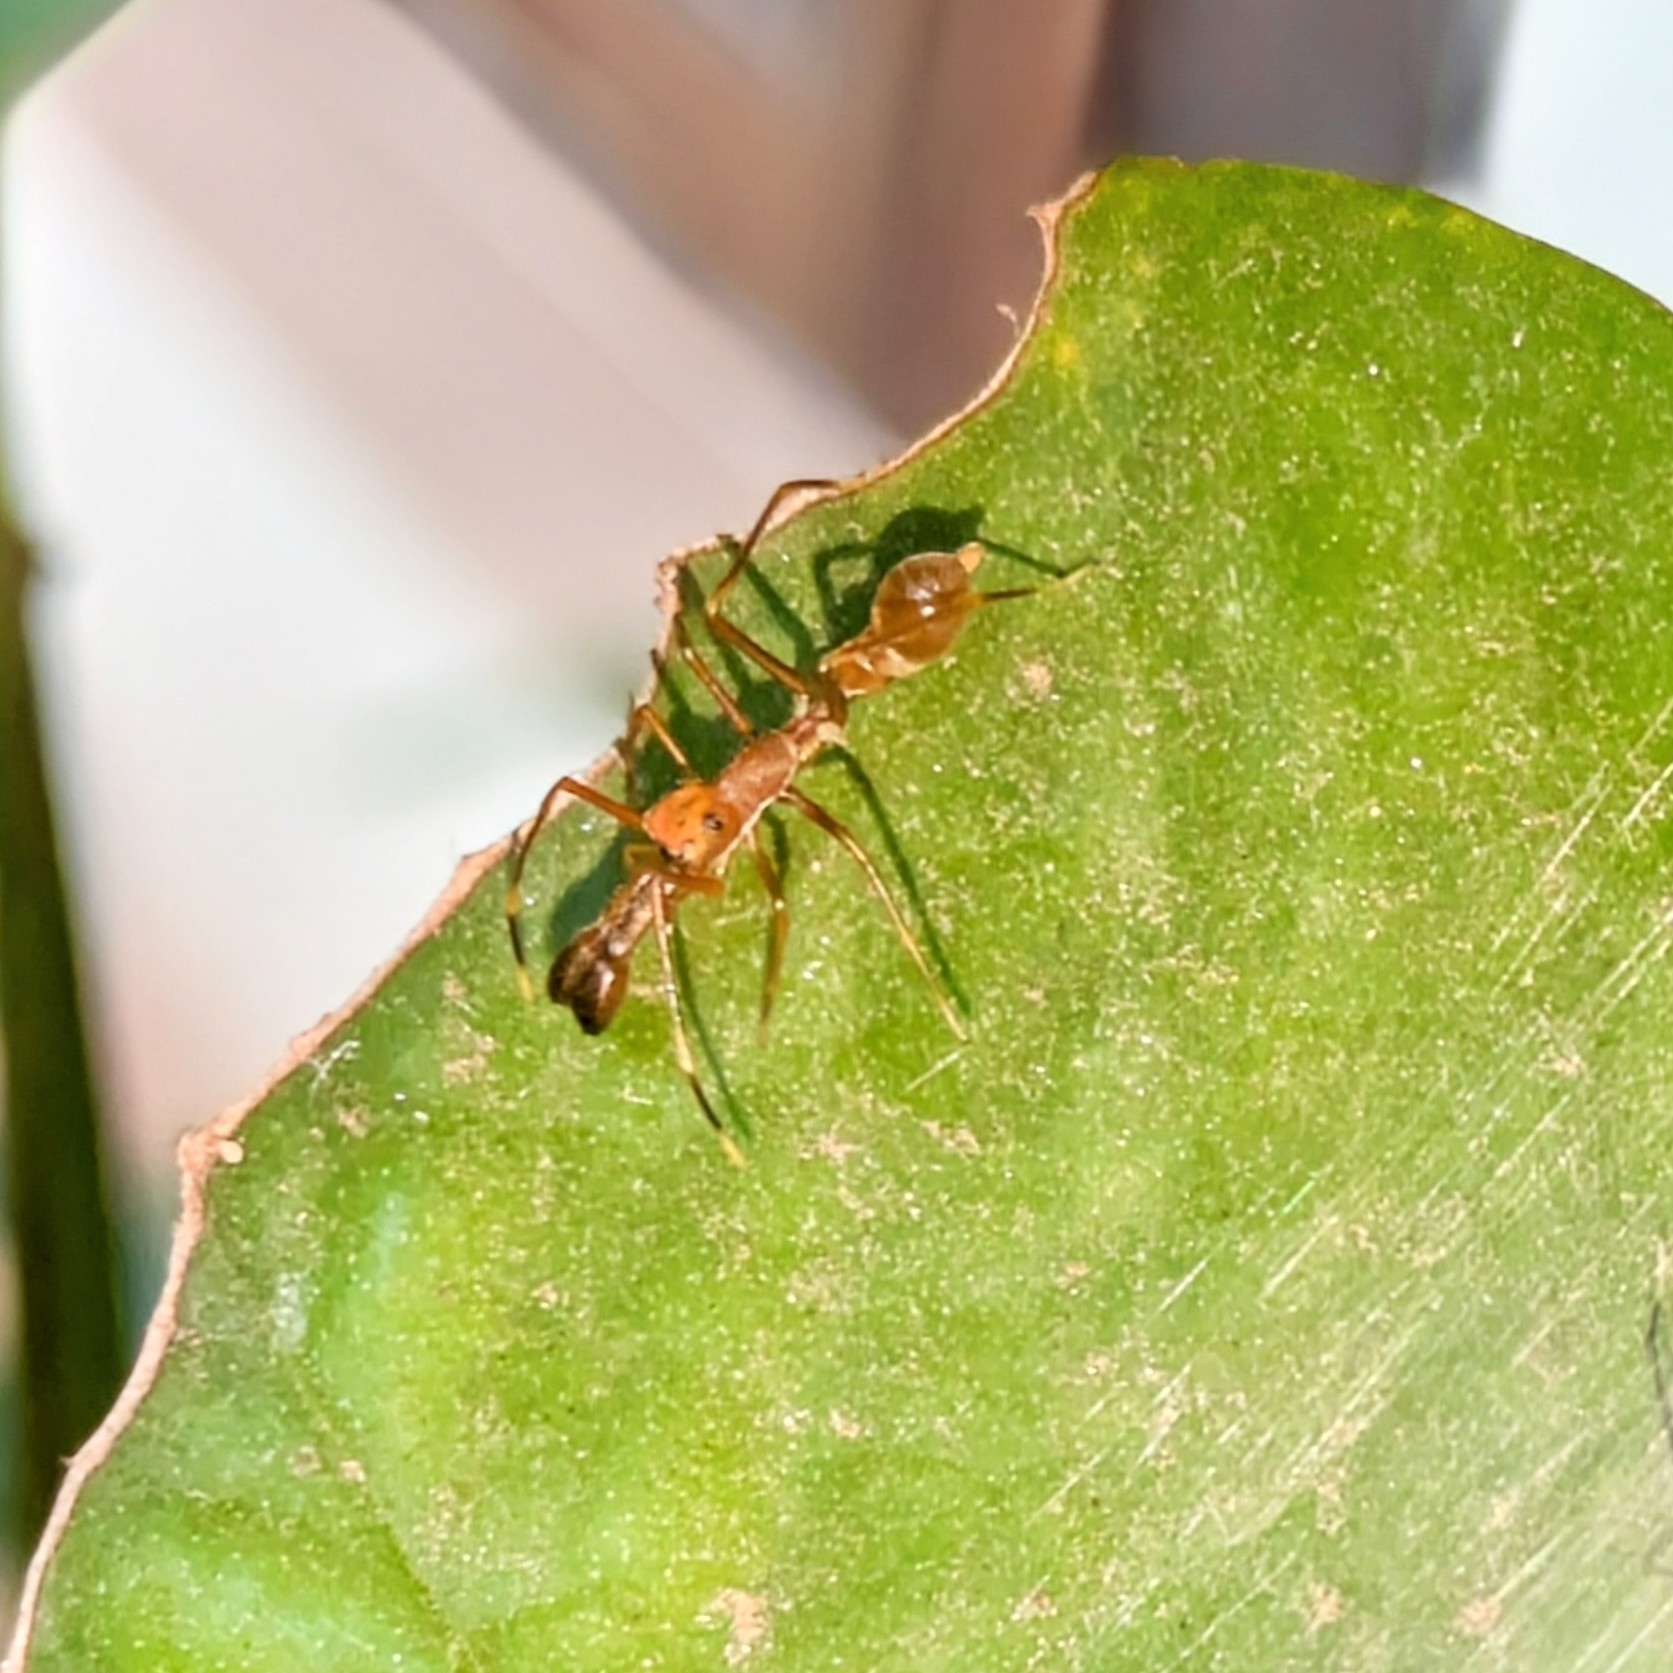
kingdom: Animalia
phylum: Arthropoda
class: Arachnida
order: Araneae
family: Salticidae
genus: Myrmaplata
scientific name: Myrmaplata plataleoides
